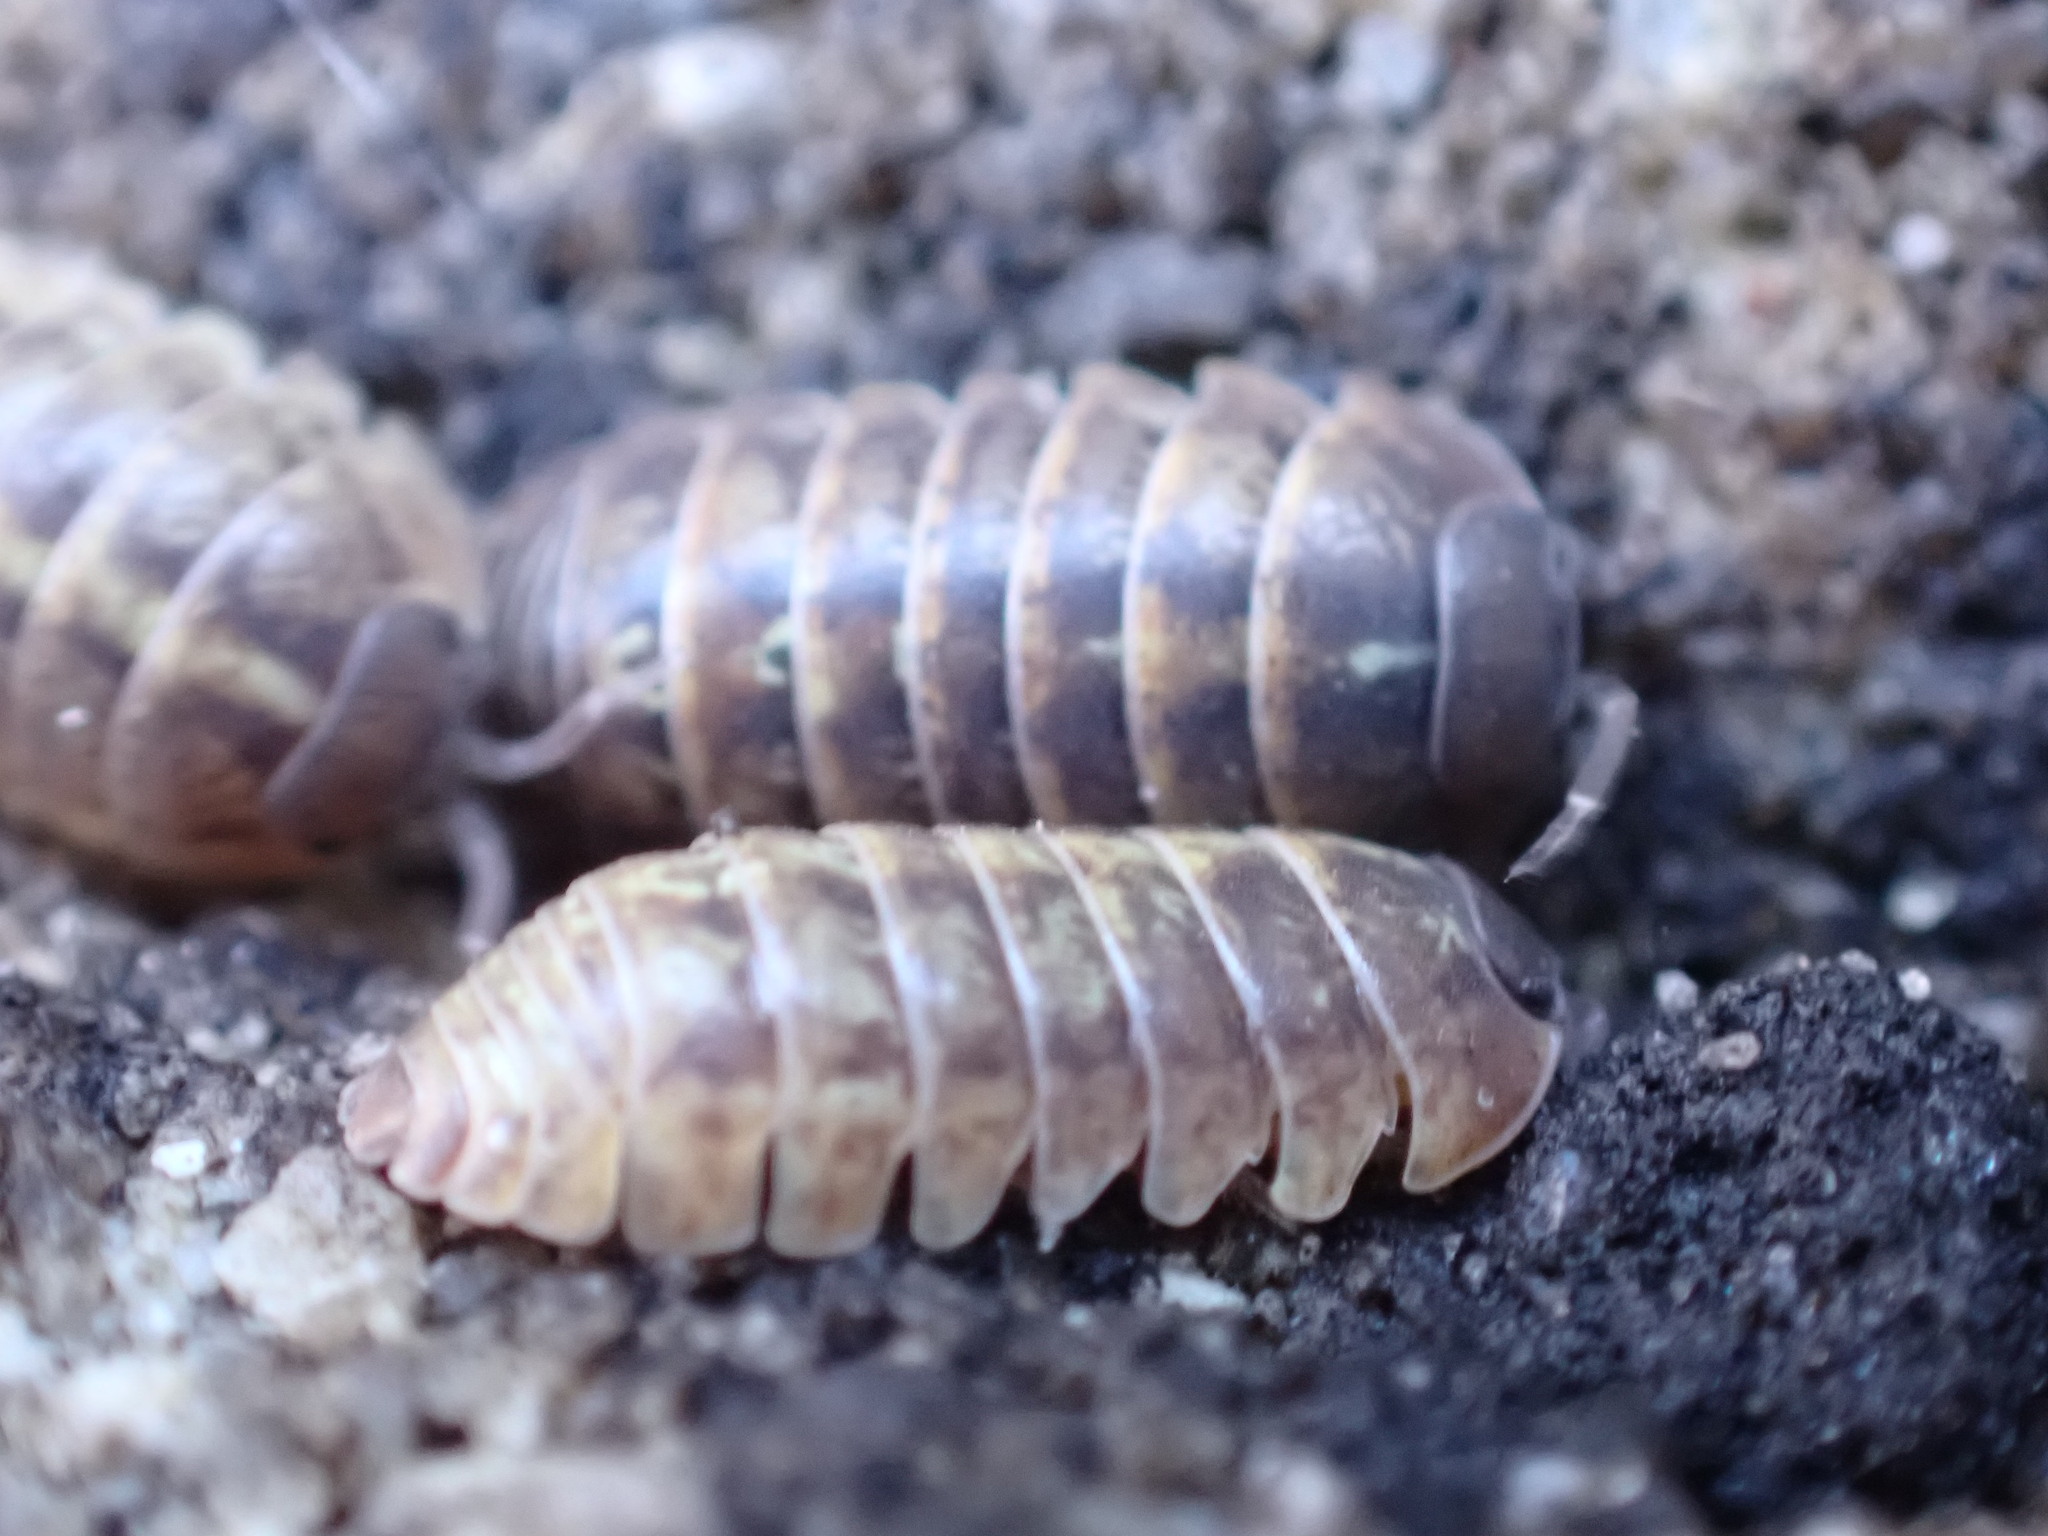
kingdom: Animalia
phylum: Arthropoda
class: Malacostraca
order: Isopoda
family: Armadillidiidae
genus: Armadillidium
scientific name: Armadillidium vulgare
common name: Common pill woodlouse
